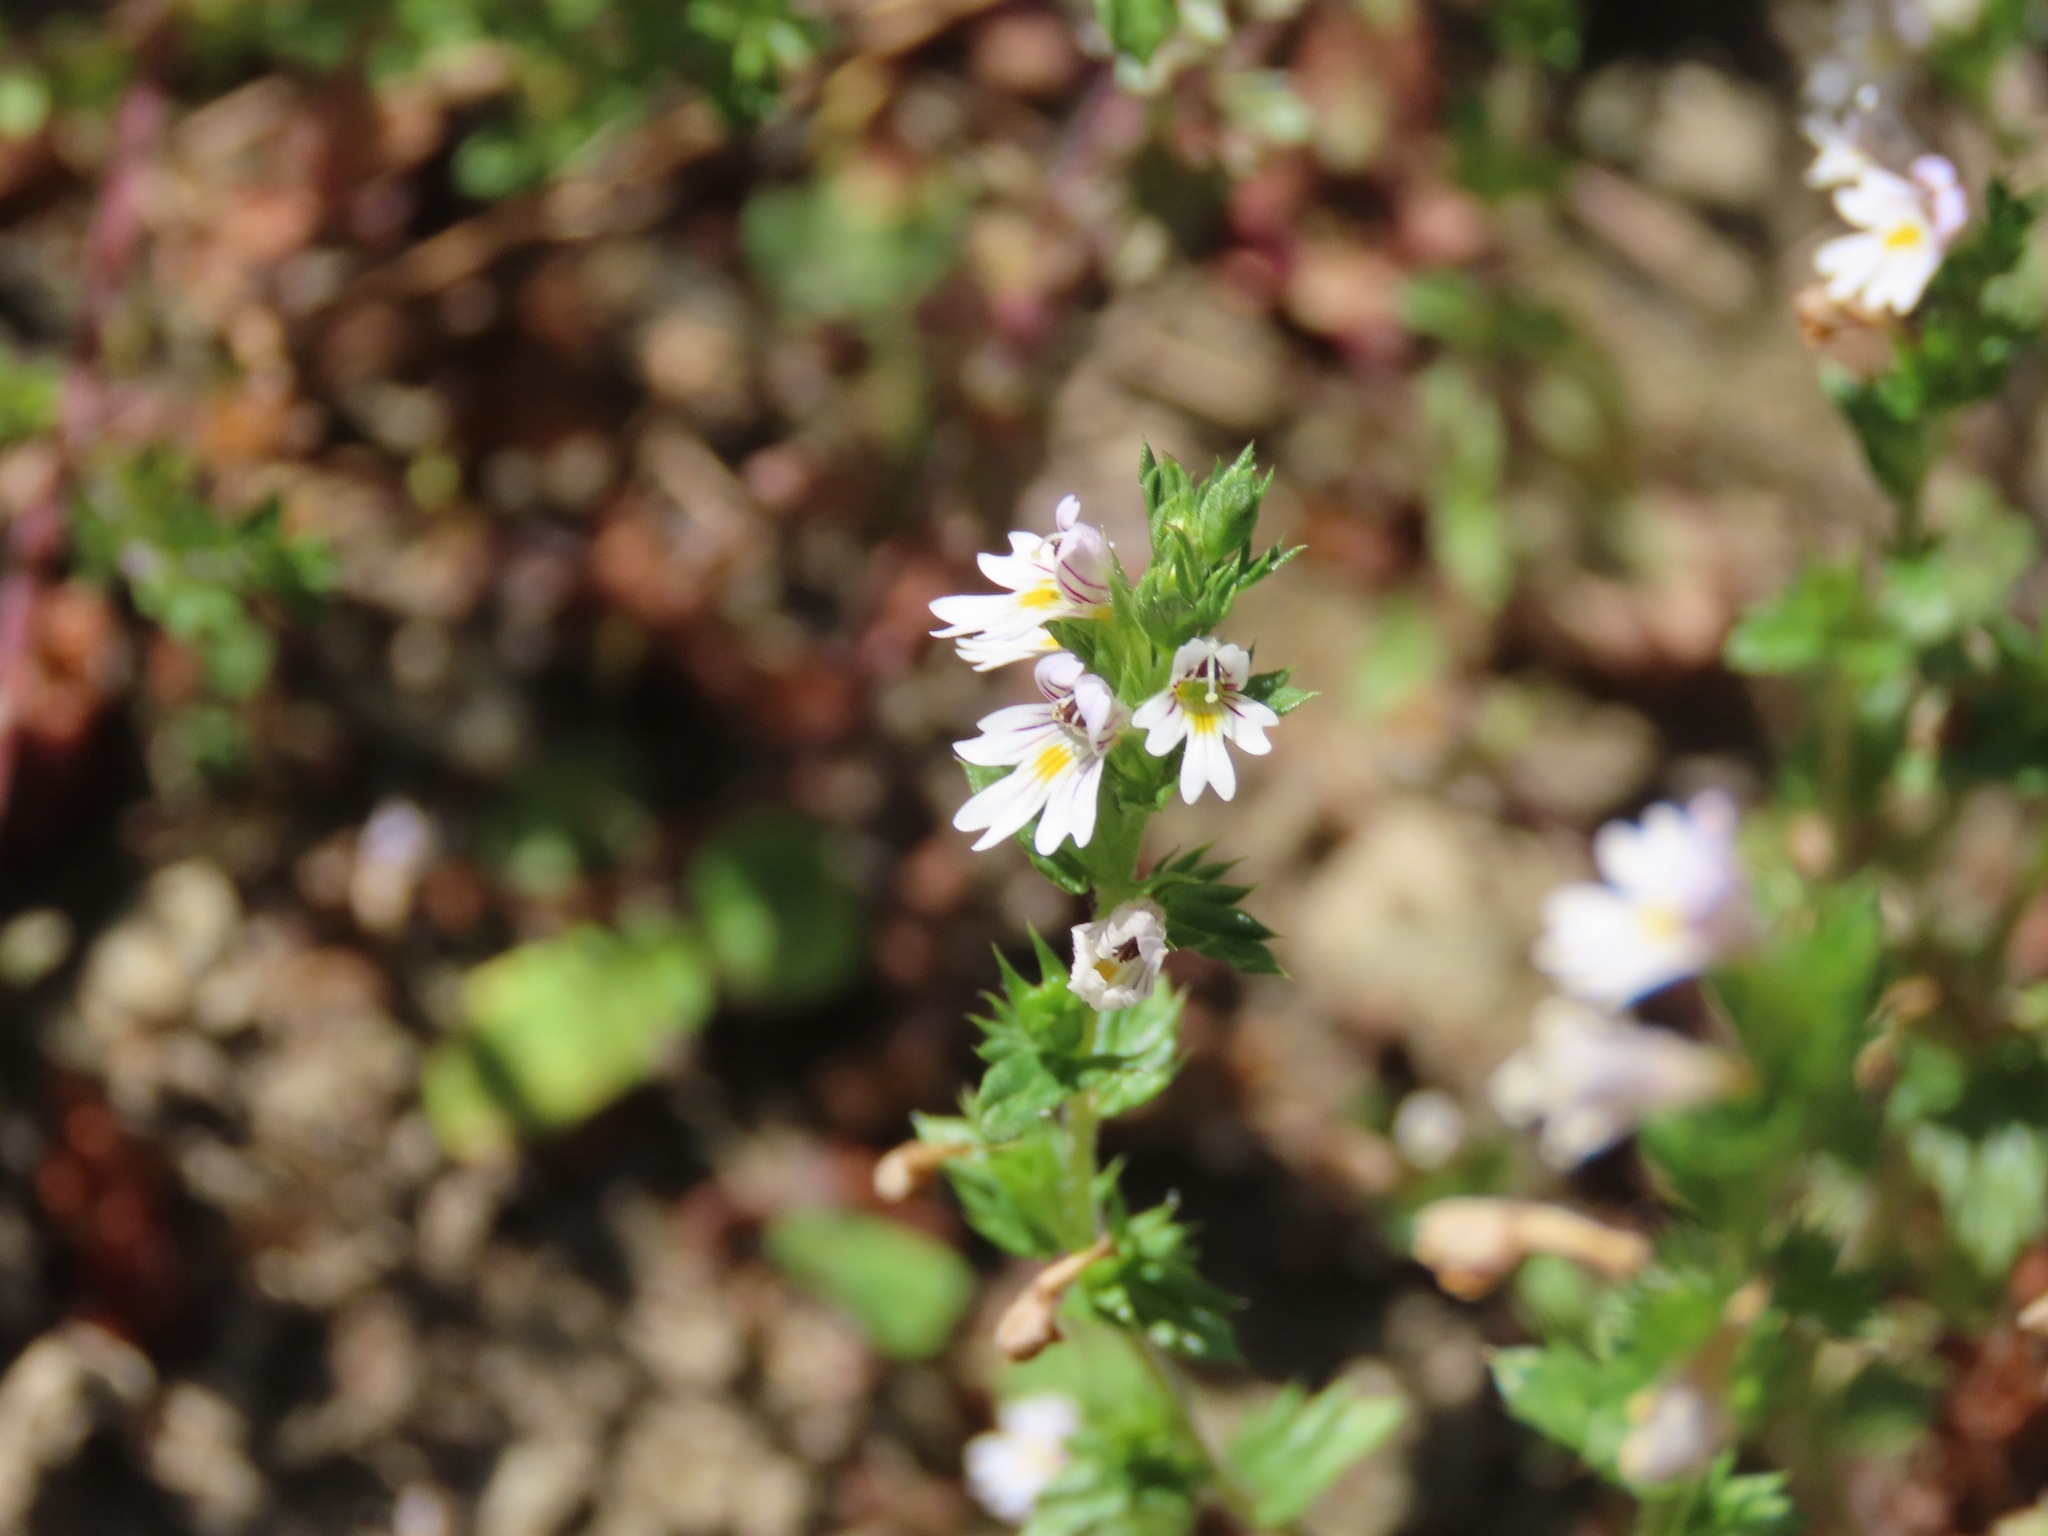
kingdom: Plantae
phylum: Tracheophyta
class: Magnoliopsida
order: Lamiales
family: Orobanchaceae
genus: Euphrasia
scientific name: Euphrasia nemorosa
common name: Common eyebright
